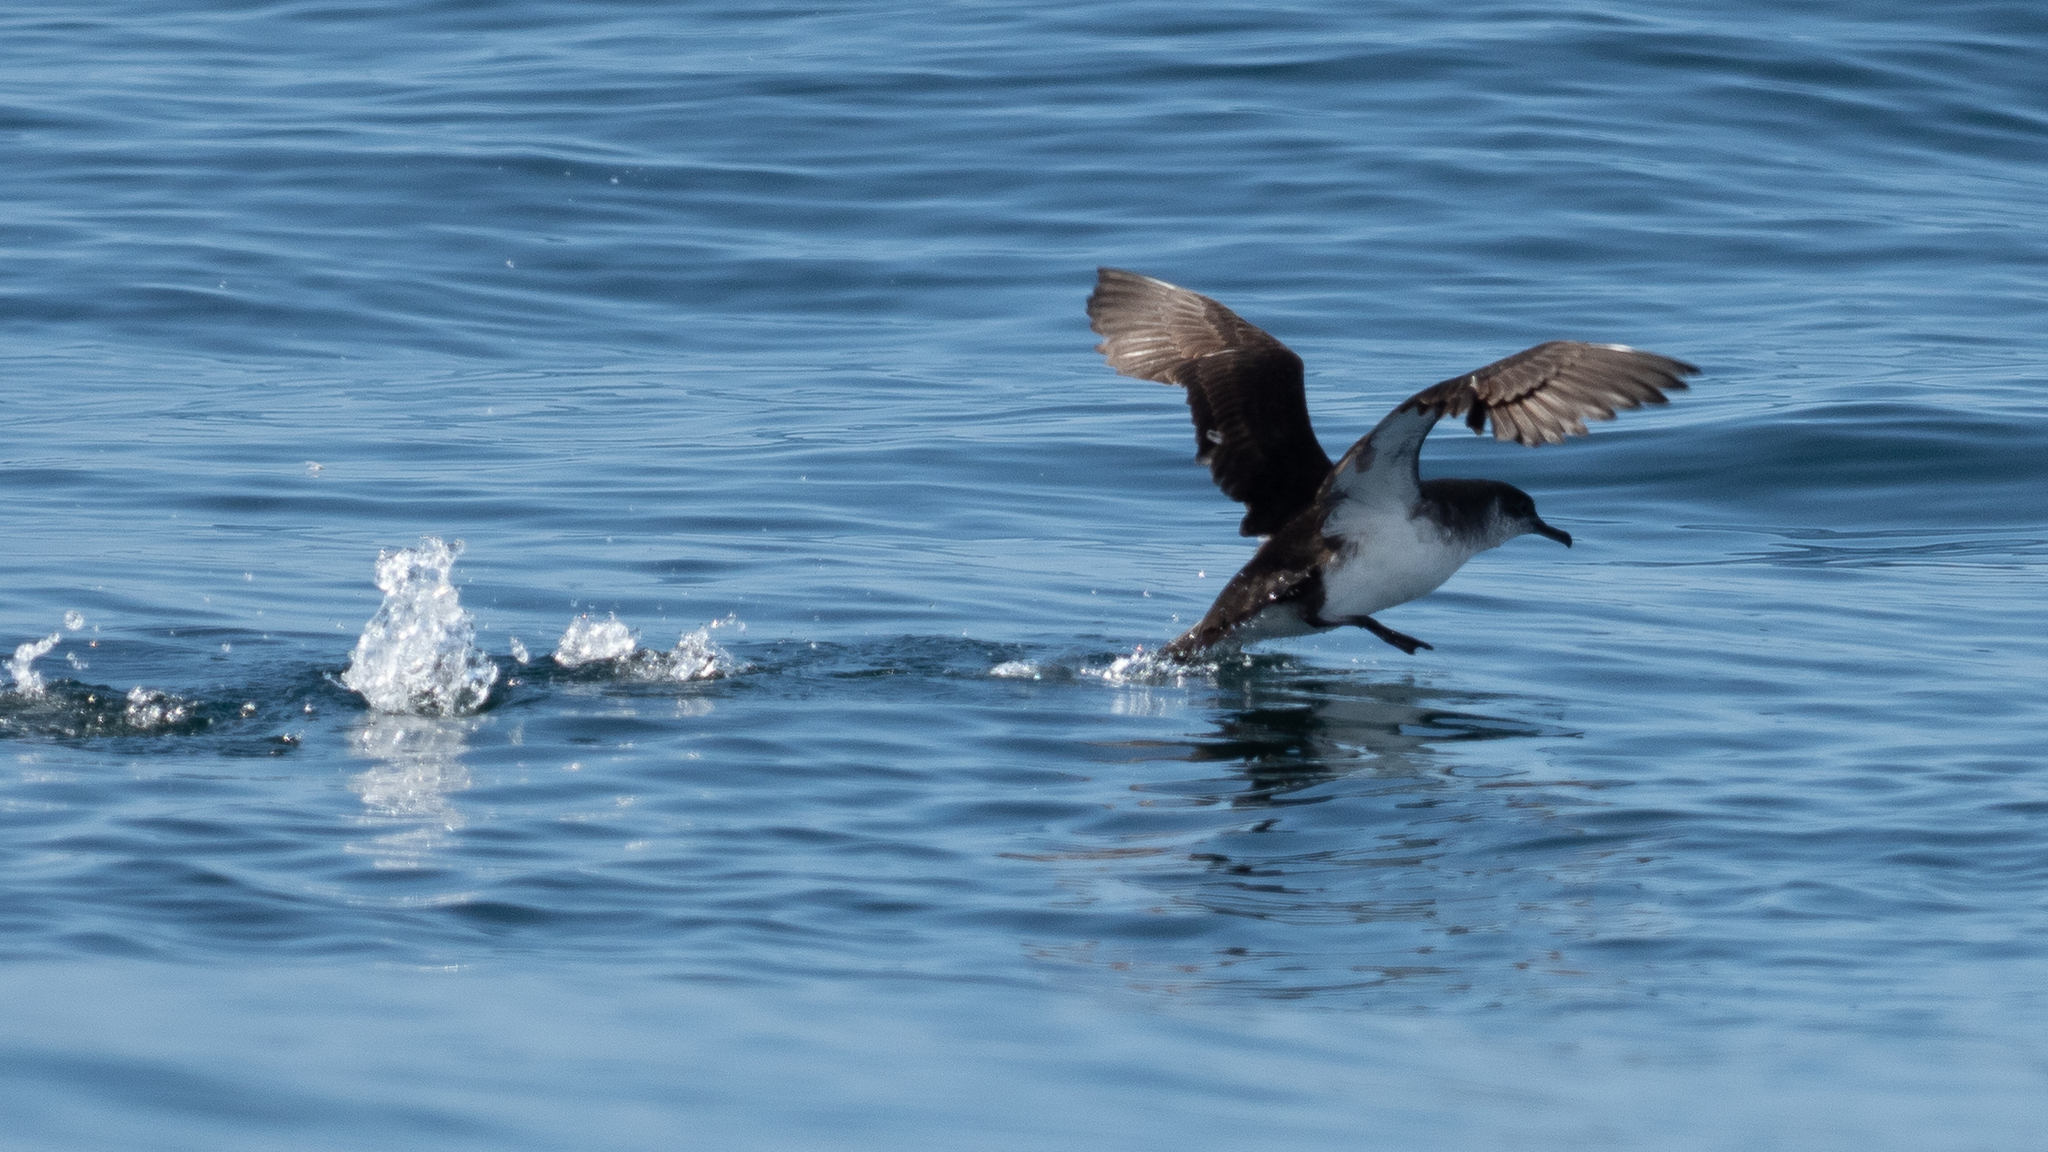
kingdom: Animalia
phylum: Chordata
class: Aves
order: Procellariiformes
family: Procellariidae
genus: Puffinus
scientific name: Puffinus puffinus
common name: Manx shearwater
